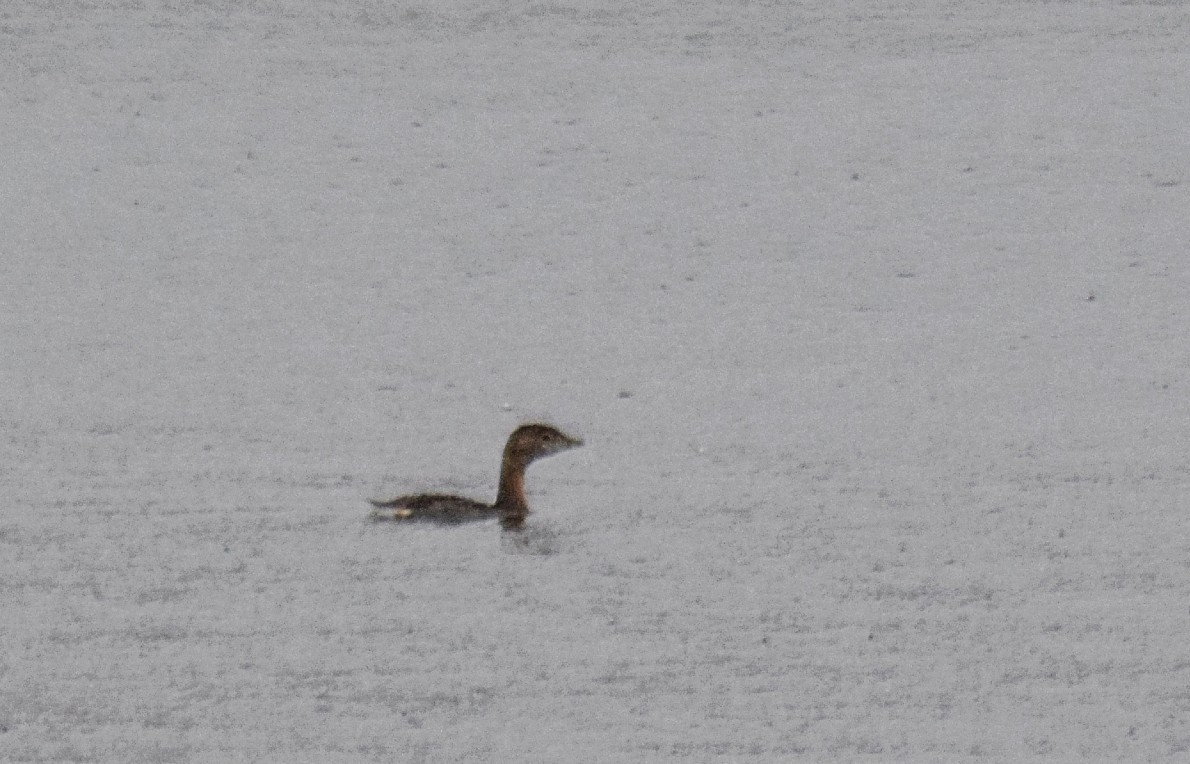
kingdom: Animalia
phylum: Chordata
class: Aves
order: Podicipediformes
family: Podicipedidae
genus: Podilymbus
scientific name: Podilymbus podiceps
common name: Pied-billed grebe
